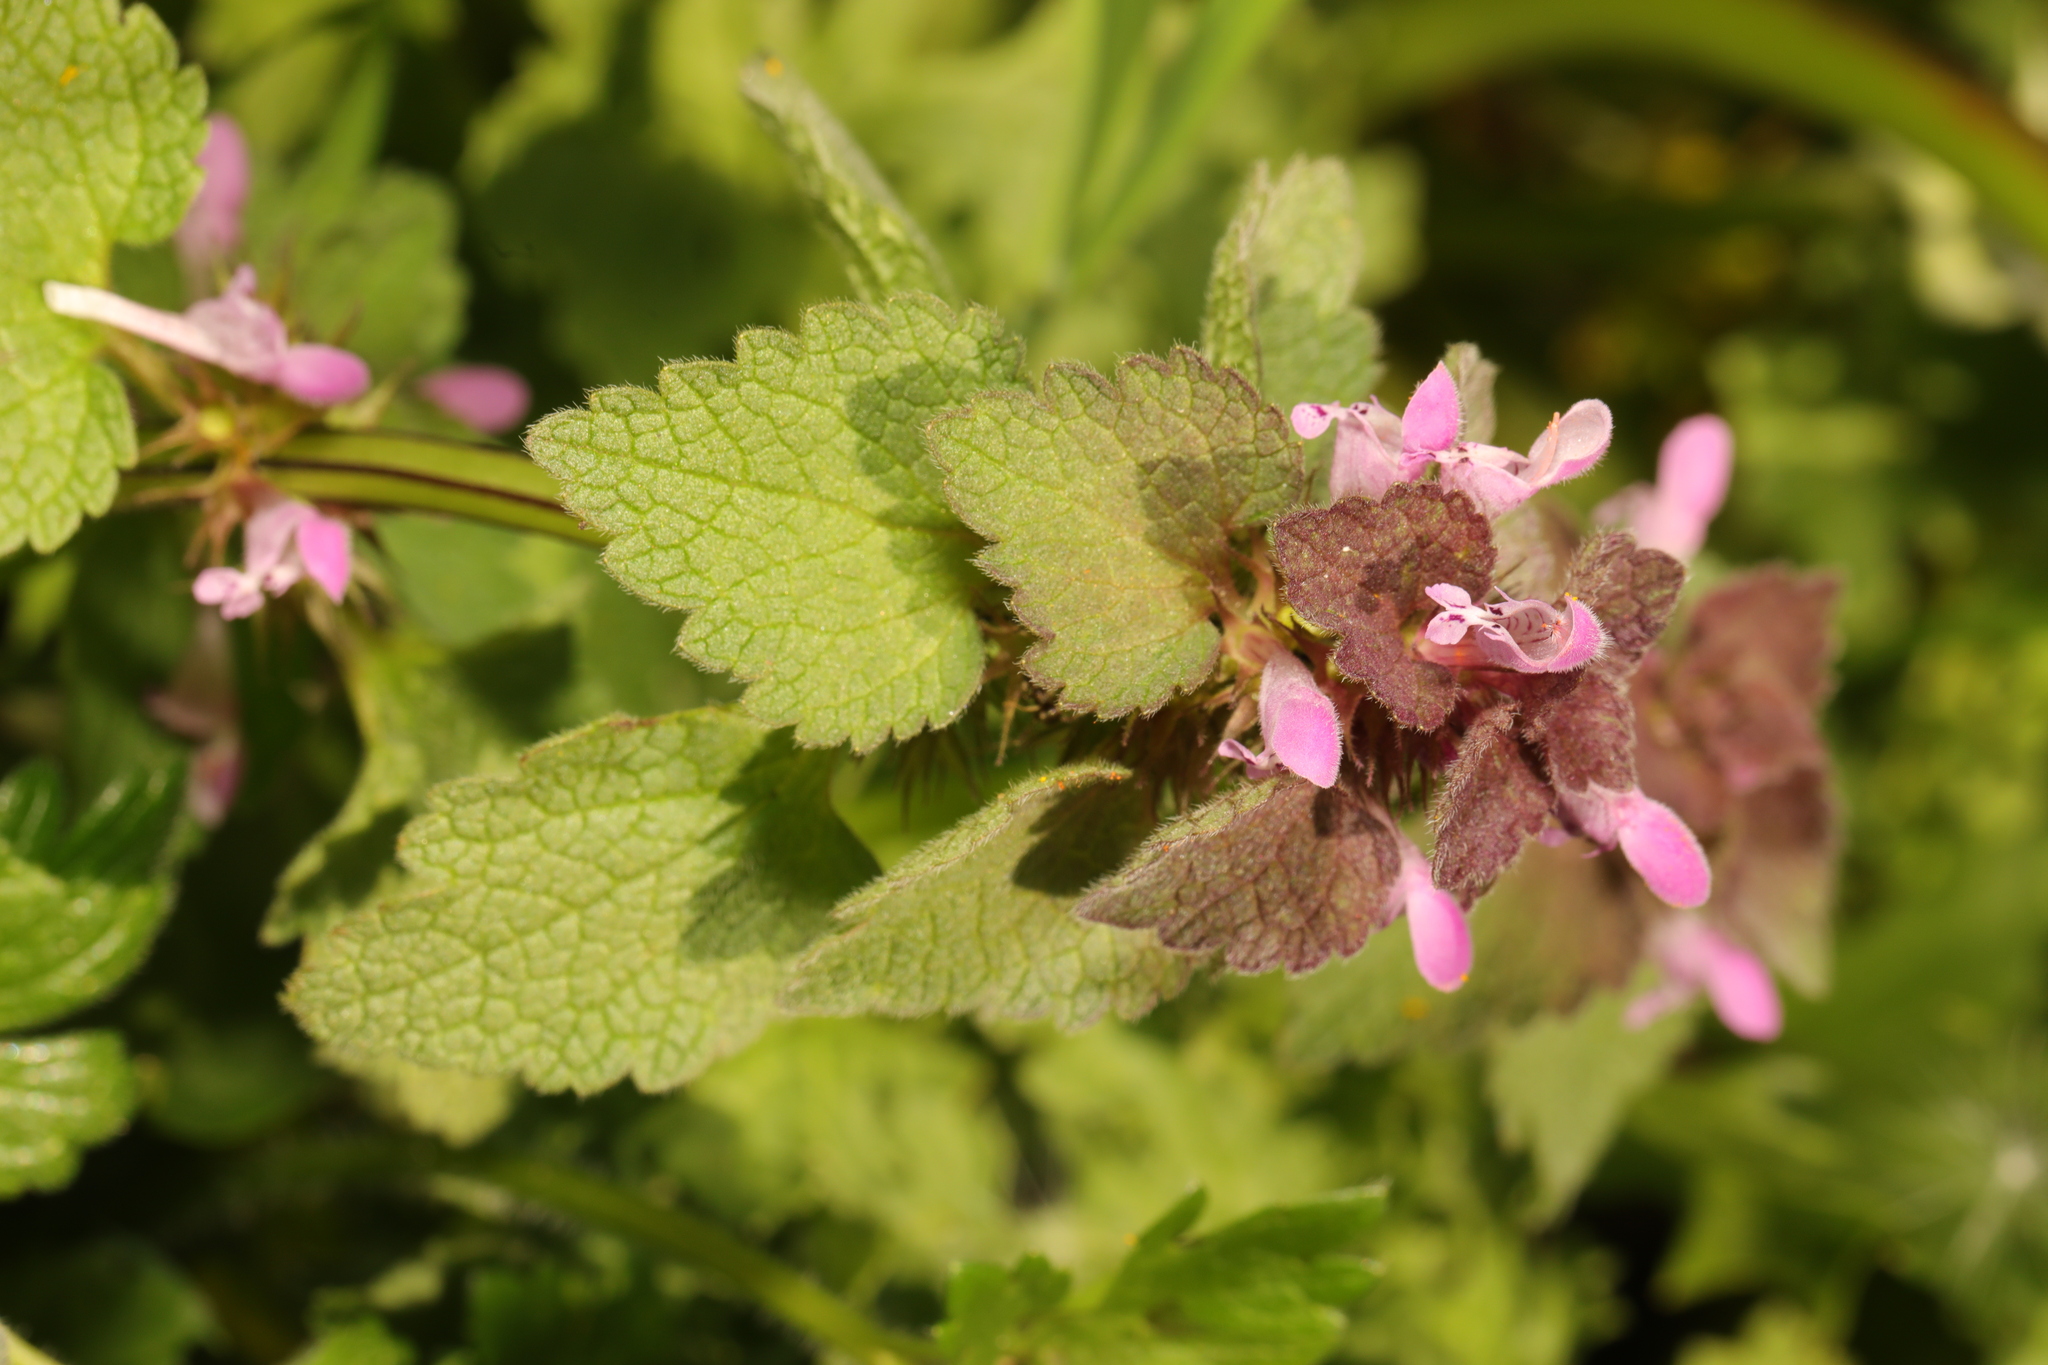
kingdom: Plantae
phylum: Tracheophyta
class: Magnoliopsida
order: Lamiales
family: Lamiaceae
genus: Lamium
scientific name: Lamium purpureum
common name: Red dead-nettle
